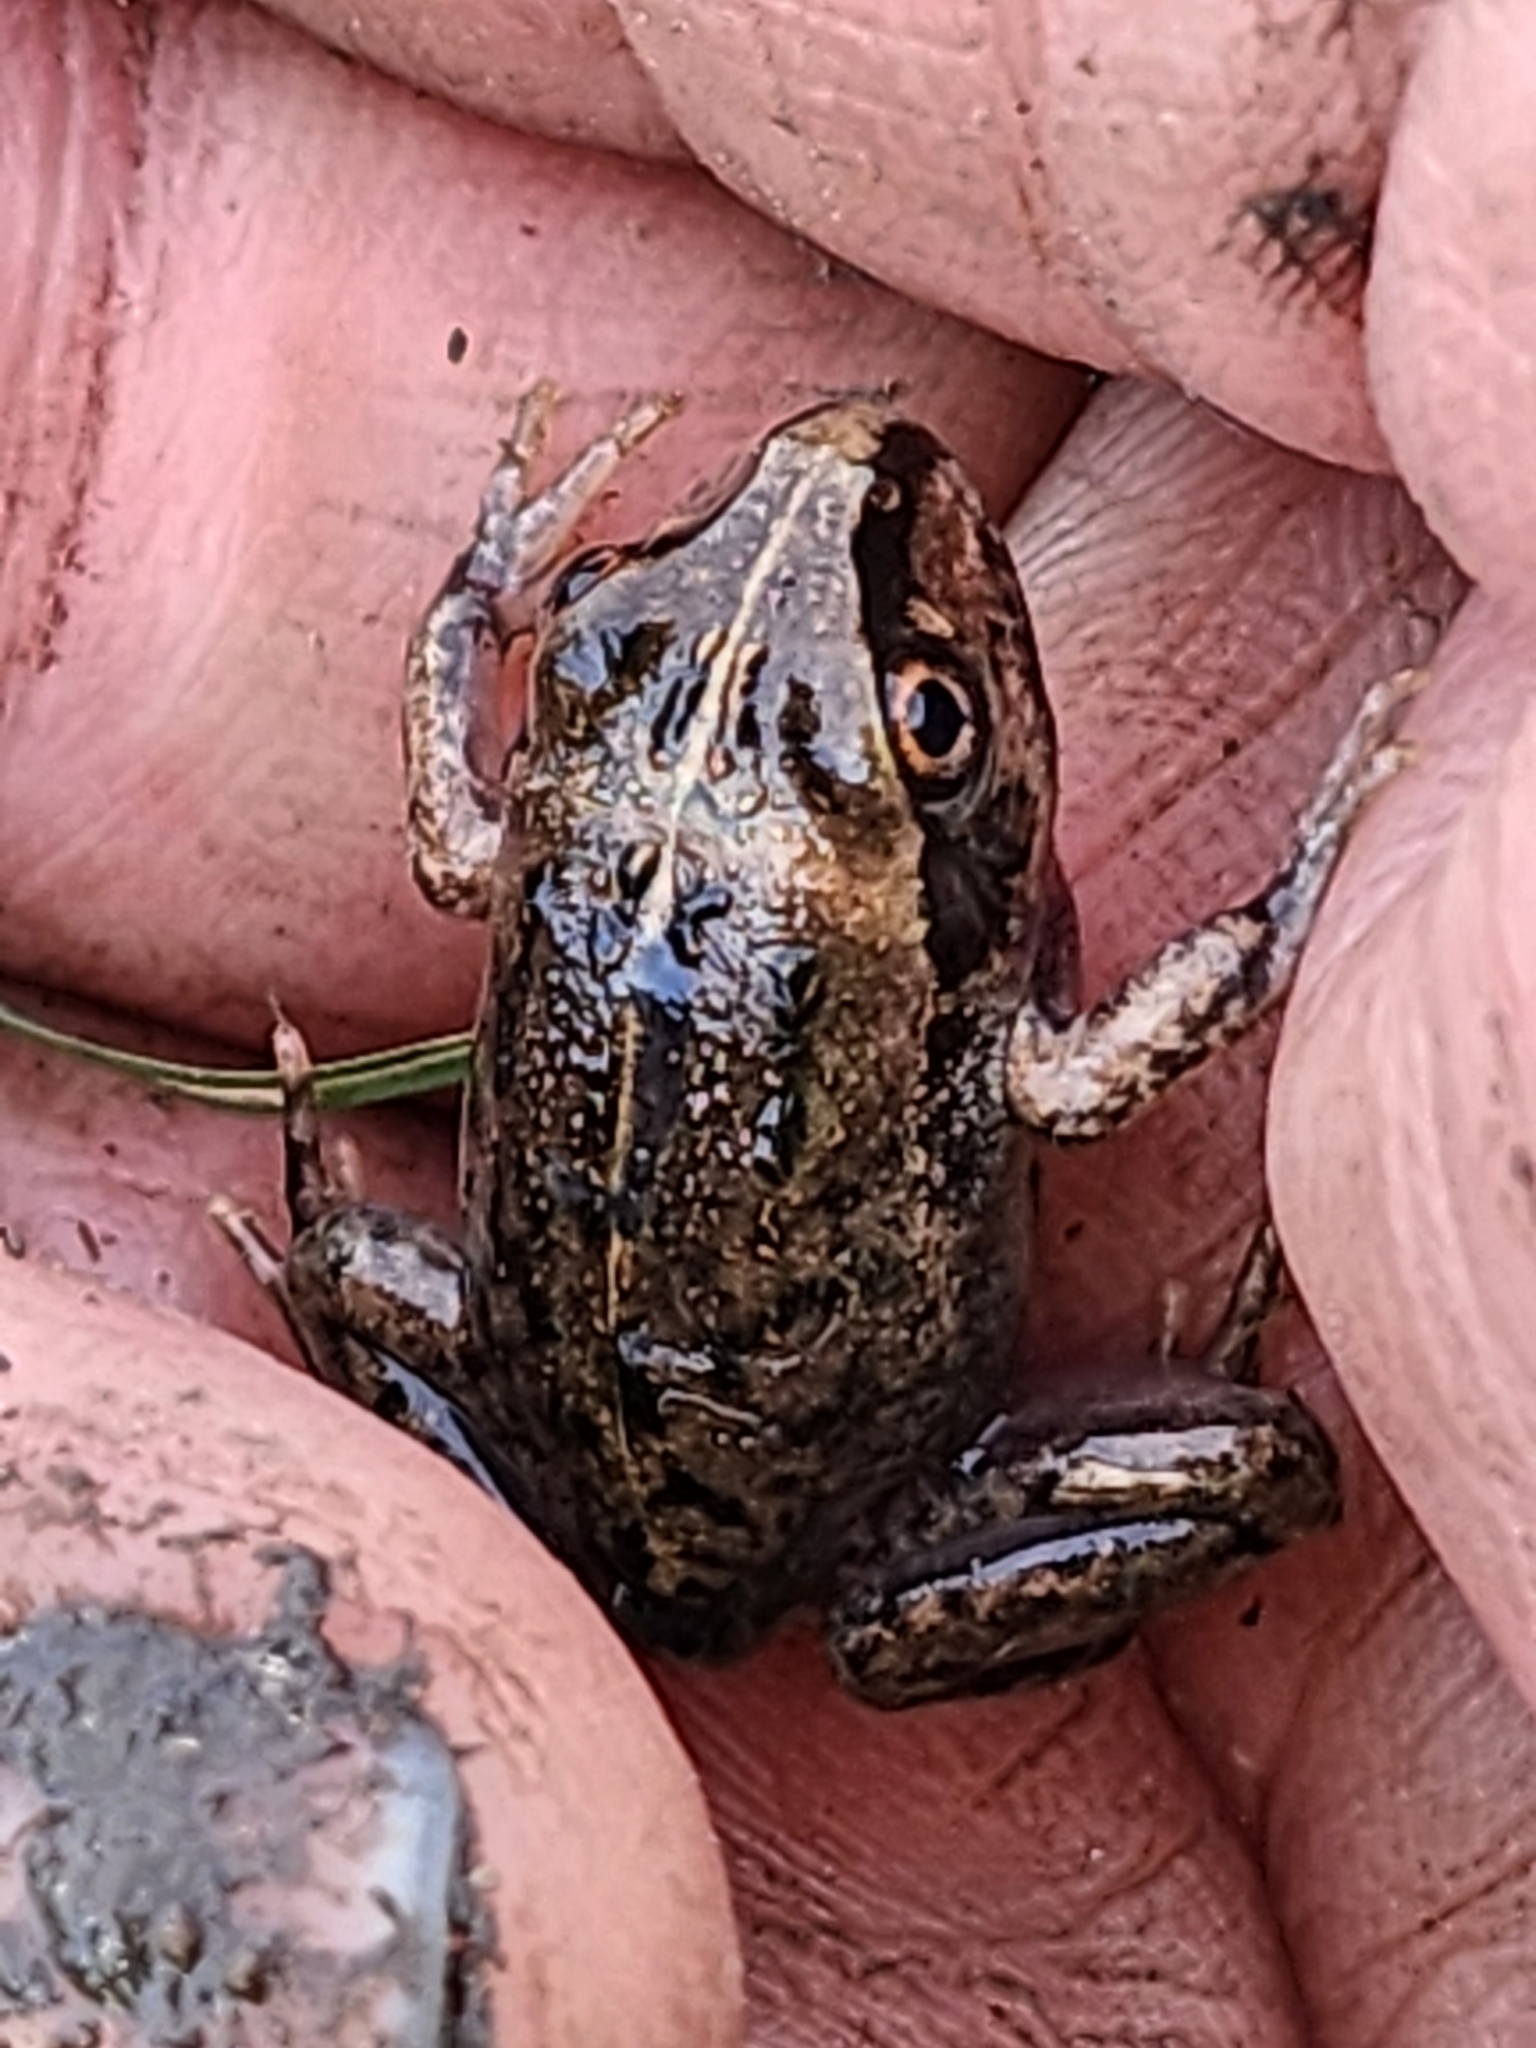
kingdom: Animalia
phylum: Chordata
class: Amphibia
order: Anura
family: Pelodryadidae
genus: Ranoidea
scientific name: Ranoidea brevipes
